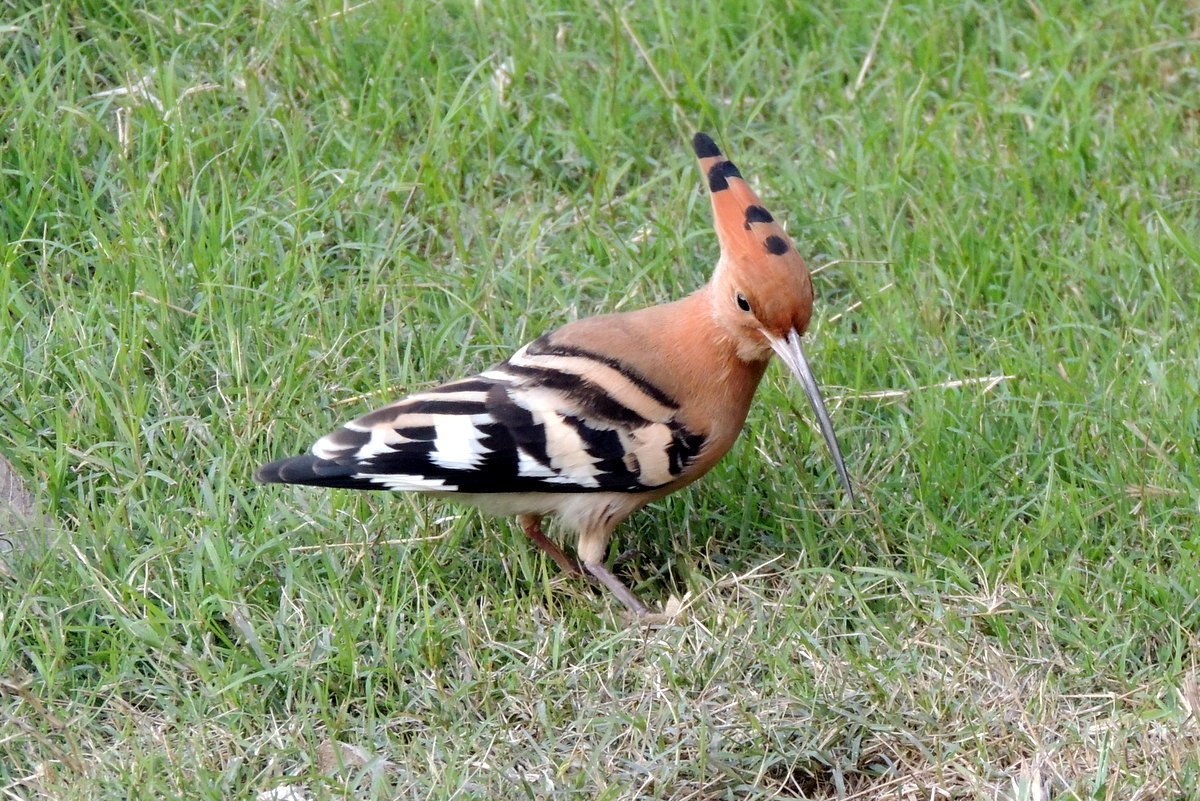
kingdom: Animalia
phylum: Chordata
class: Aves
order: Bucerotiformes
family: Upupidae
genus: Upupa
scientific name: Upupa epops
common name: Eurasian hoopoe
